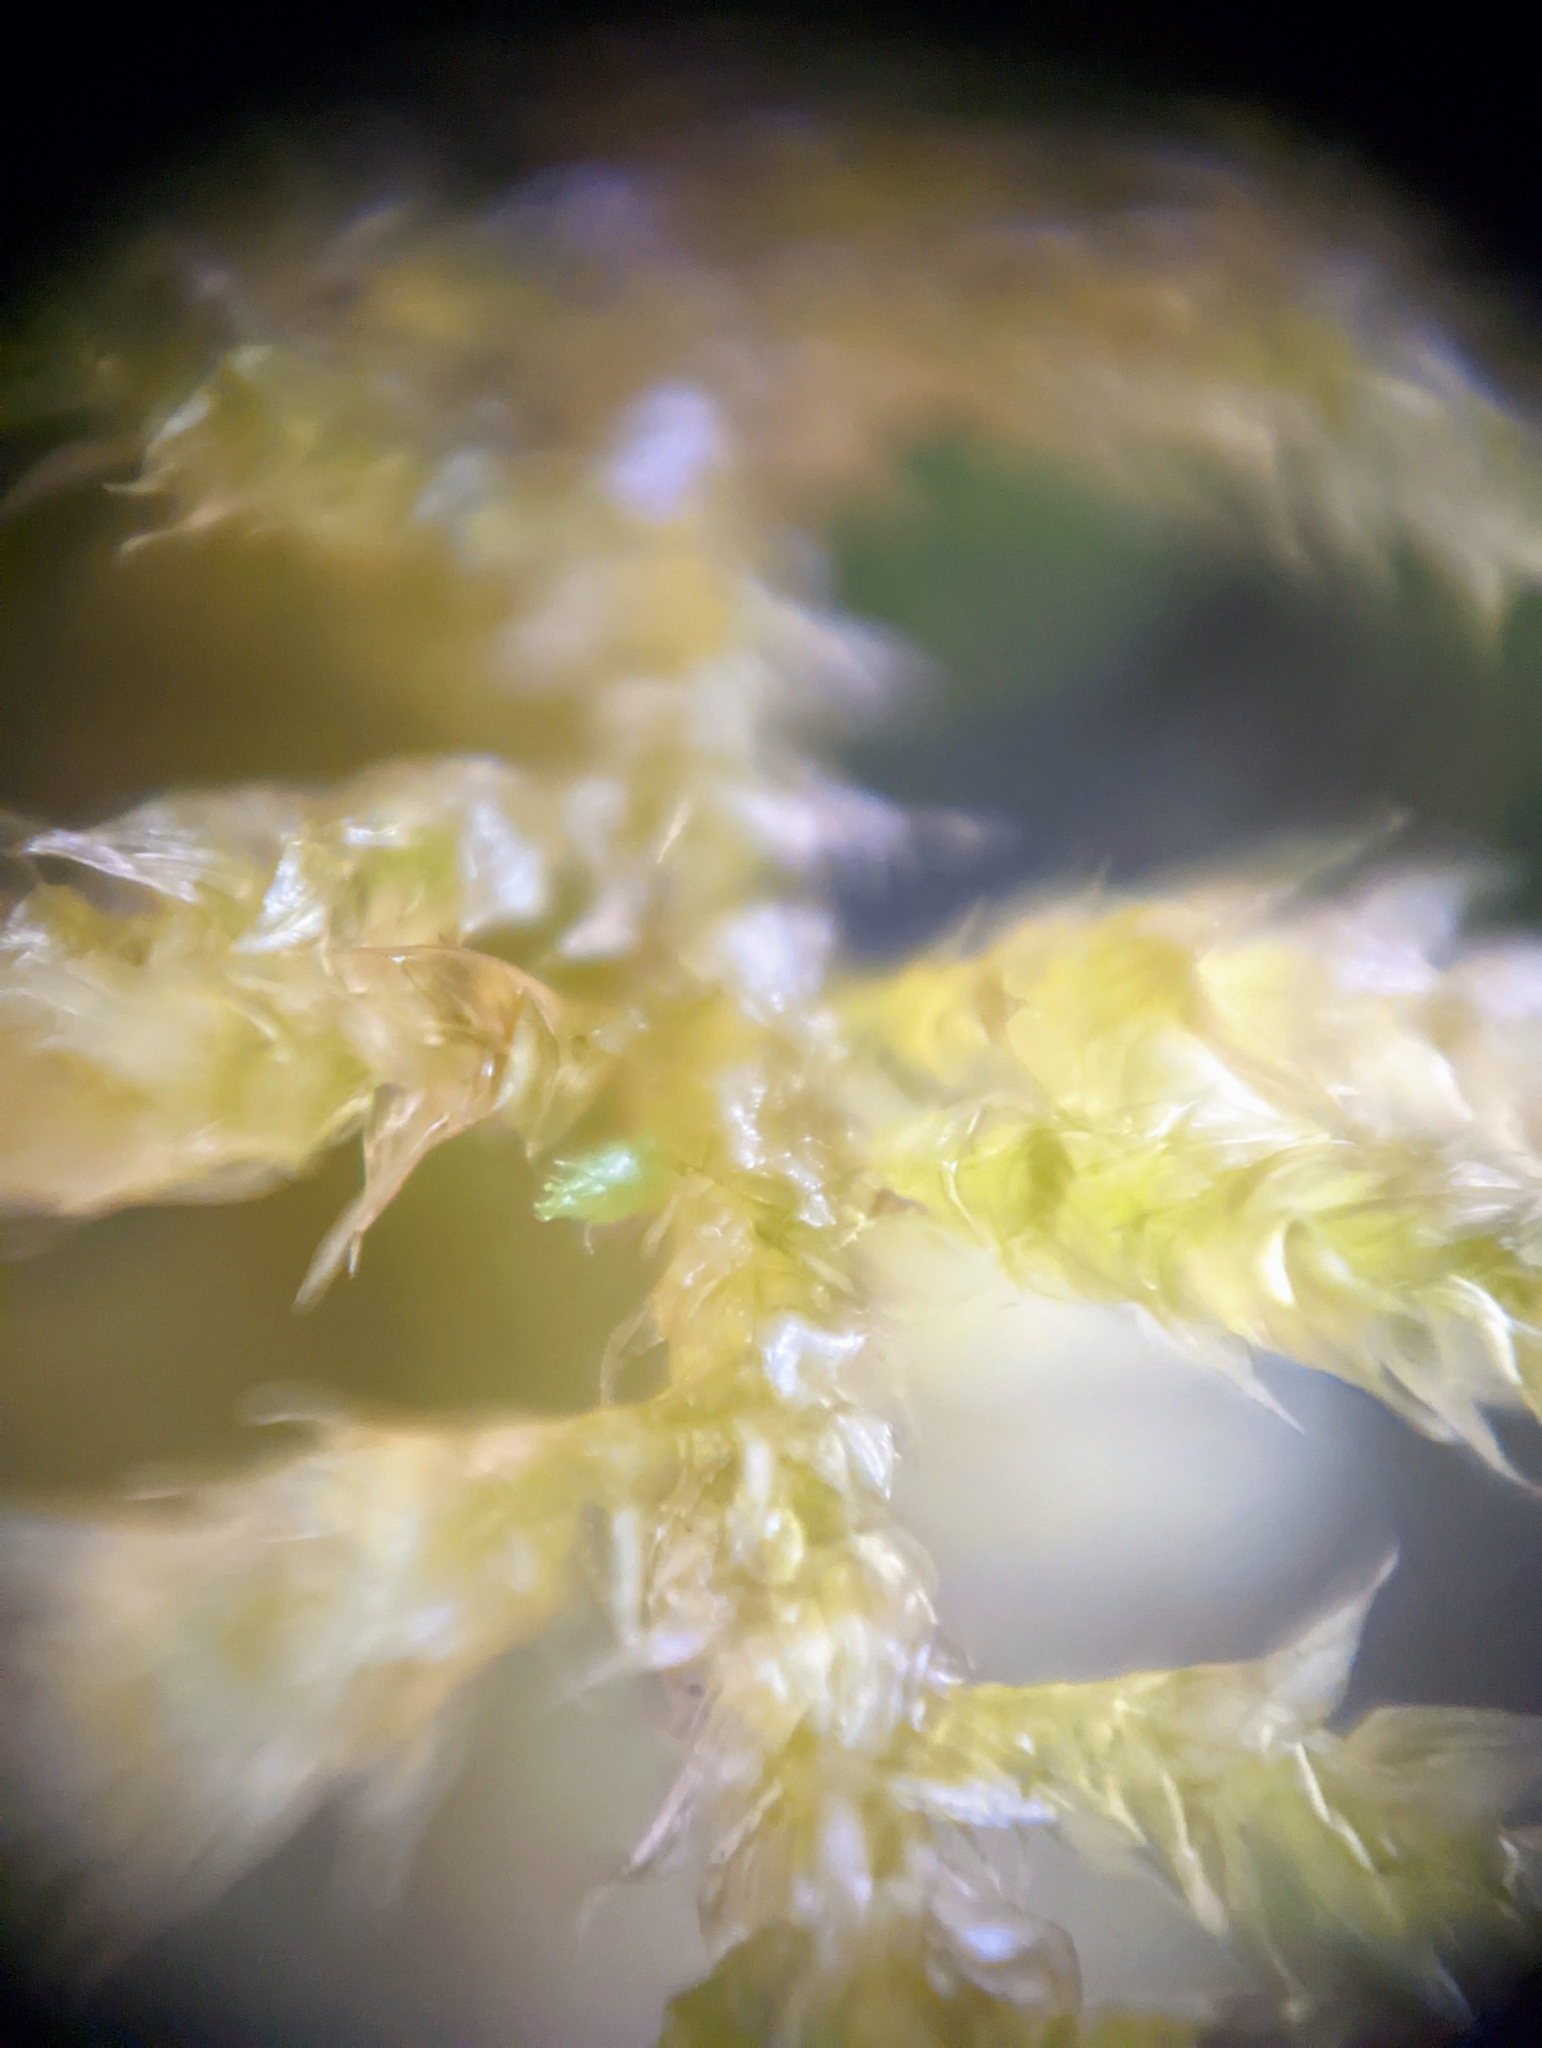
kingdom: Plantae
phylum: Bryophyta
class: Bryopsida
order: Hypnales
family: Brachytheciaceae
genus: Kindbergia
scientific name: Kindbergia oregana
